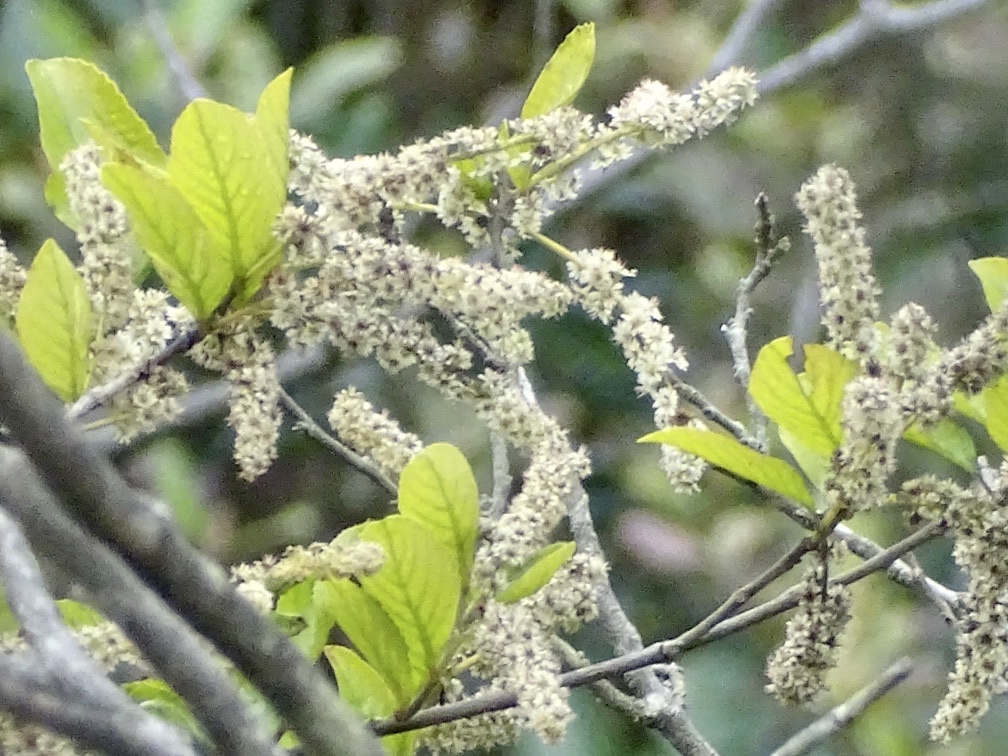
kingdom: Plantae
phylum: Tracheophyta
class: Magnoliopsida
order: Malpighiales
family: Salicaceae
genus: Homalium
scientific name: Homalium cochinchinensis
